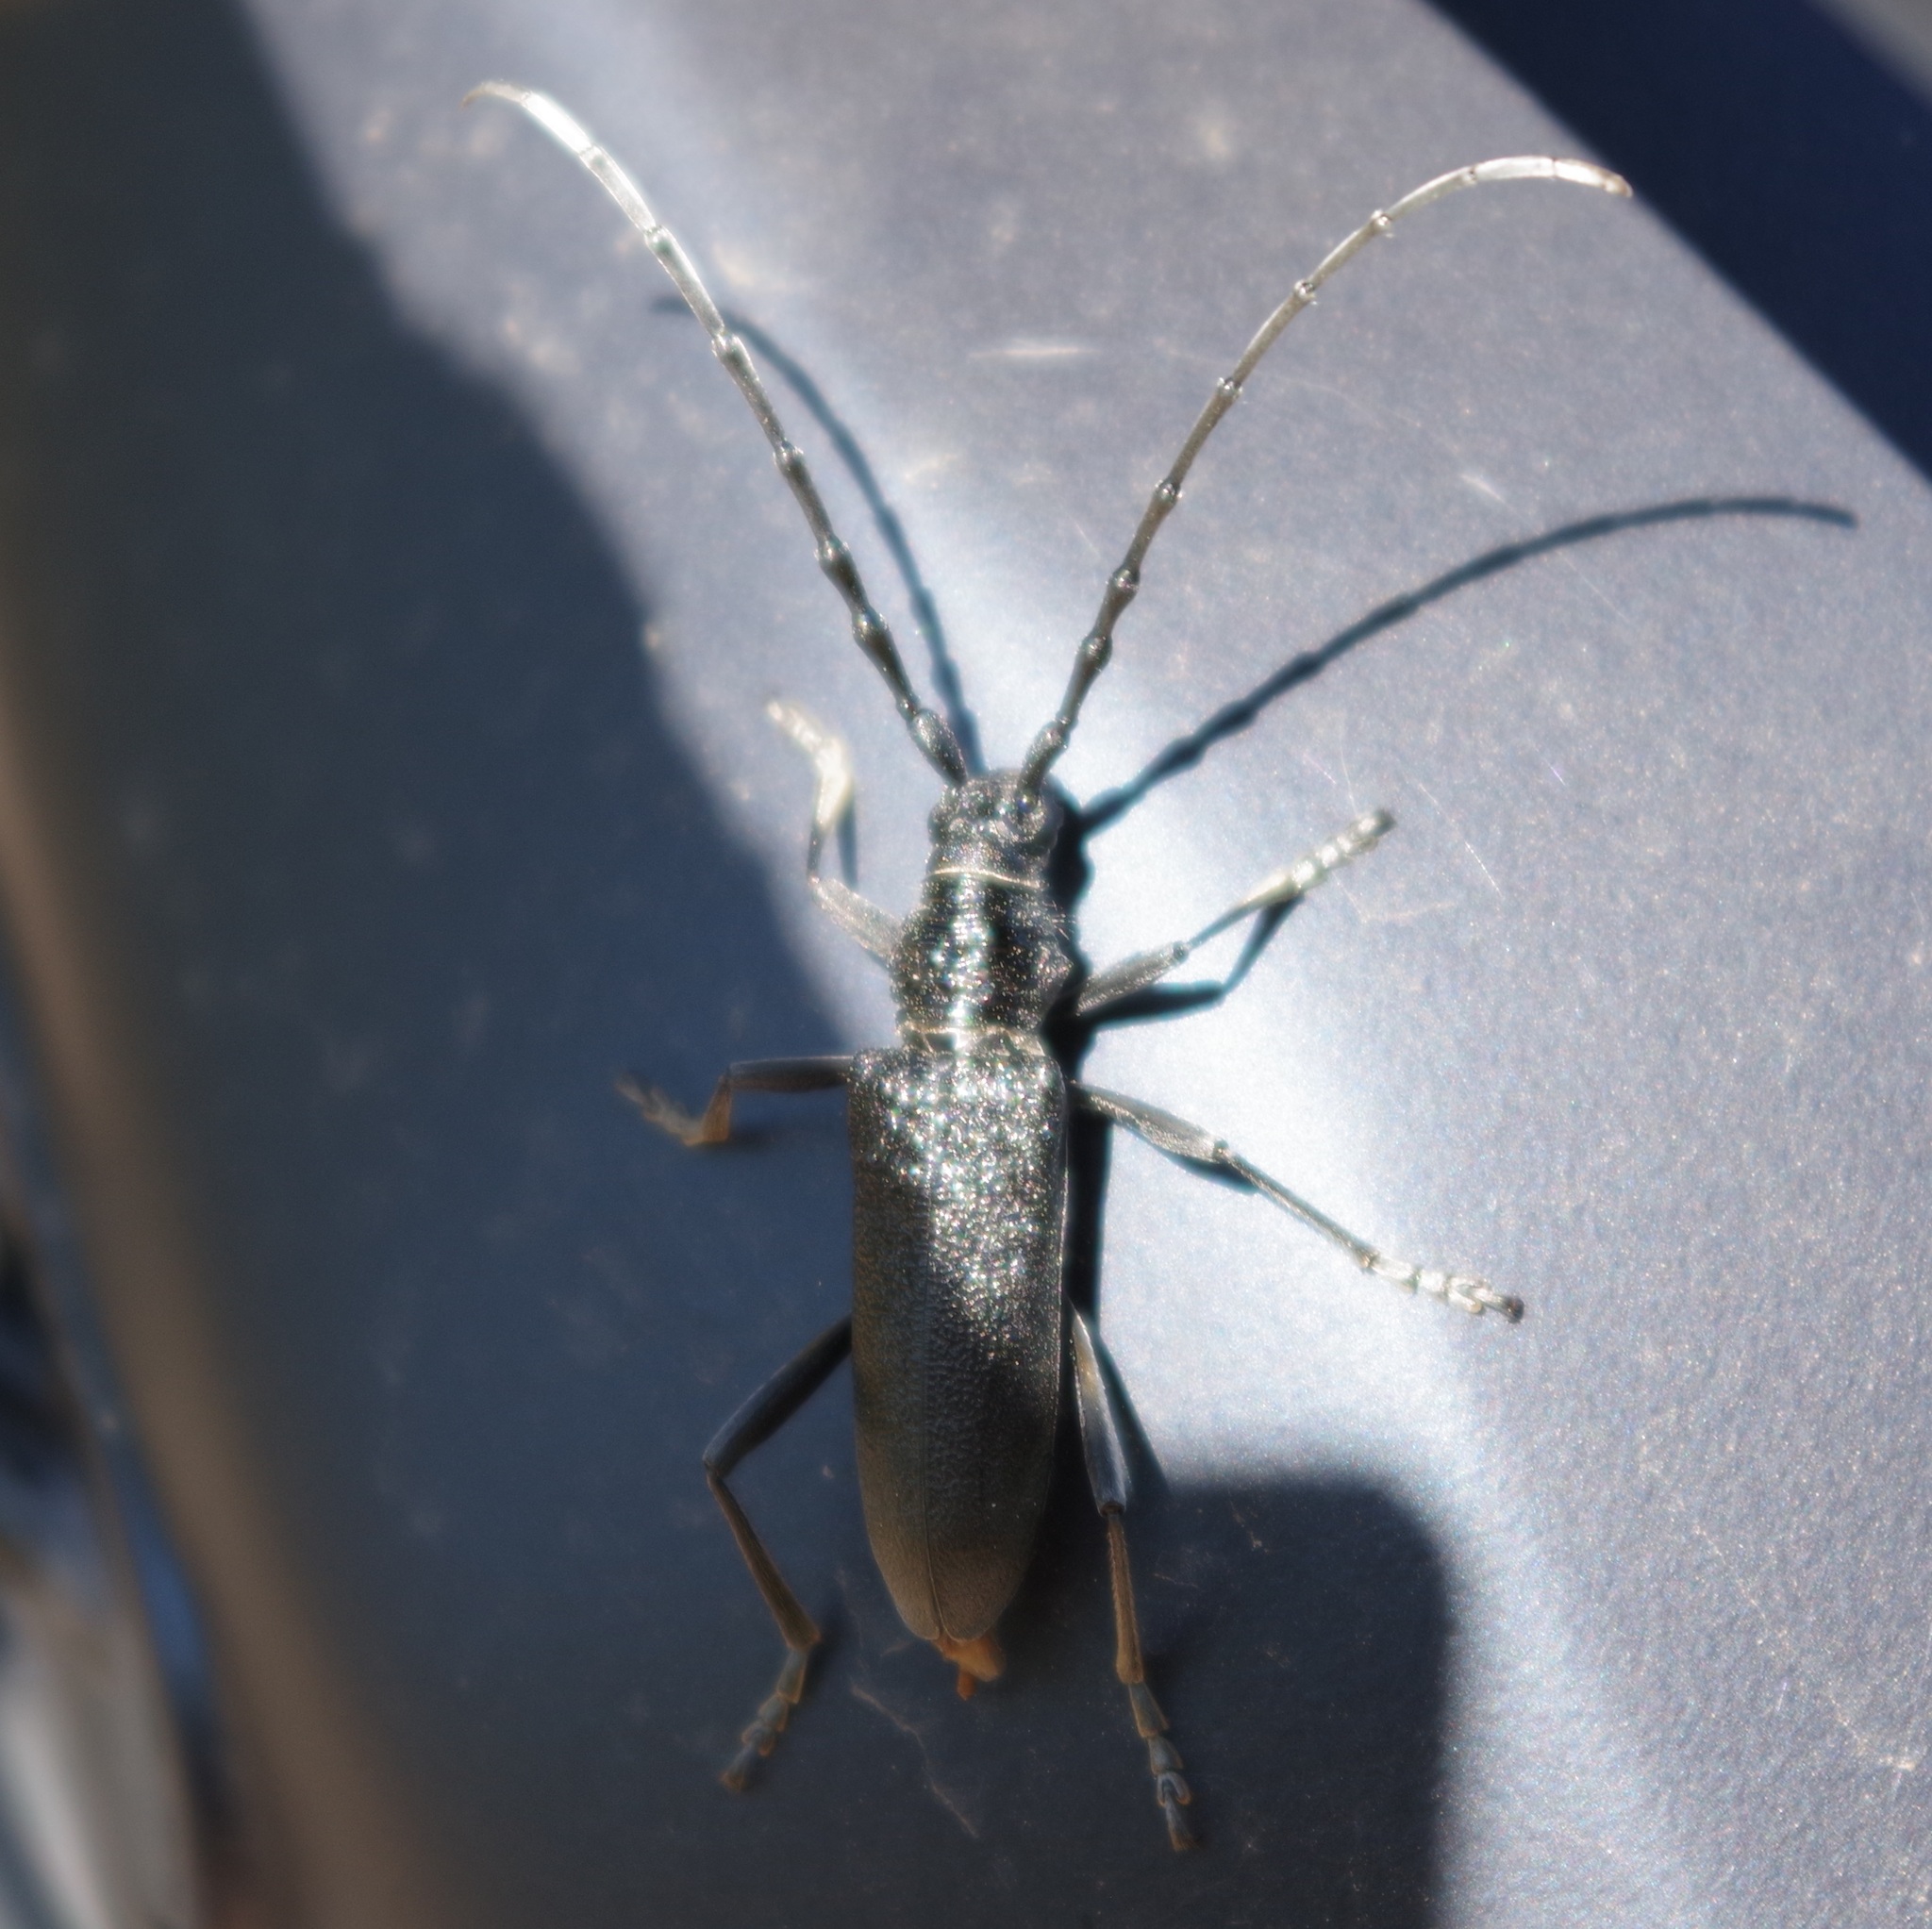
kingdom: Animalia
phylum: Arthropoda
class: Insecta
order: Coleoptera
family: Cerambycidae
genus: Cerambyx
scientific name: Cerambyx scopolii
